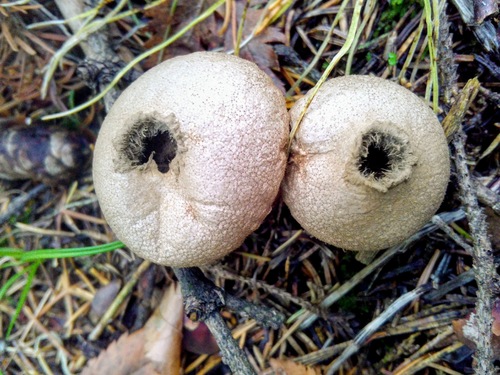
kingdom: Fungi
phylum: Basidiomycota
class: Agaricomycetes
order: Agaricales
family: Lycoperdaceae
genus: Lycoperdon
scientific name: Lycoperdon perlatum
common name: Common puffball
